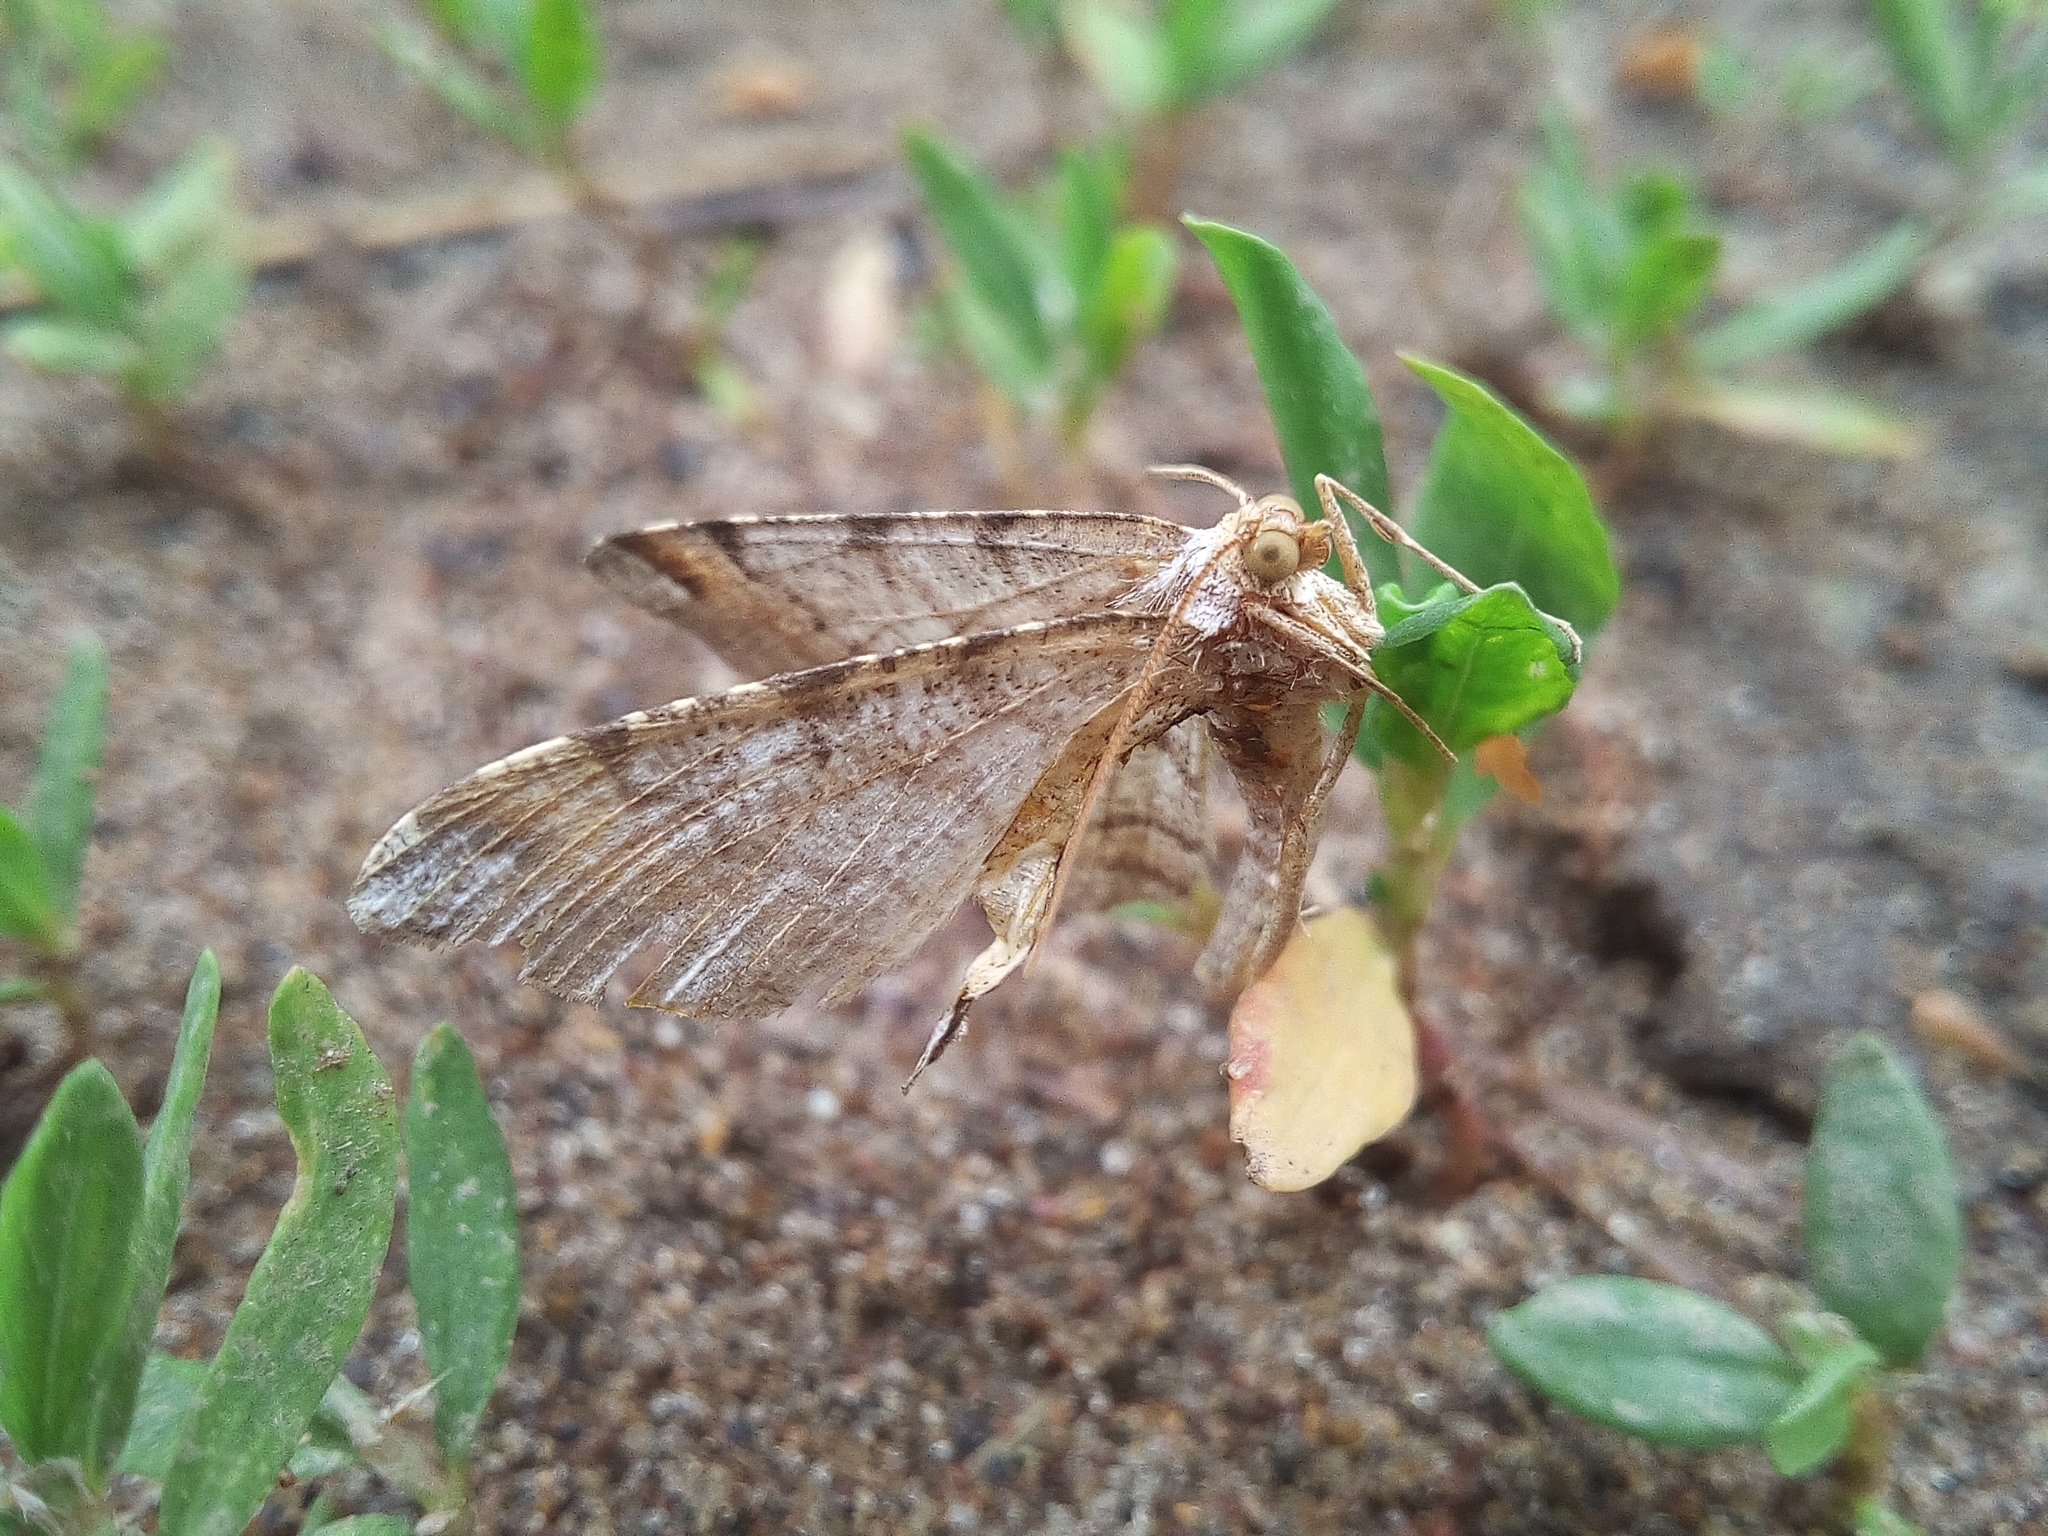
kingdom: Animalia
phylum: Arthropoda
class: Insecta
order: Lepidoptera
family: Geometridae
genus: Macaria
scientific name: Macaria liturata
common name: Tawny-barred angle
